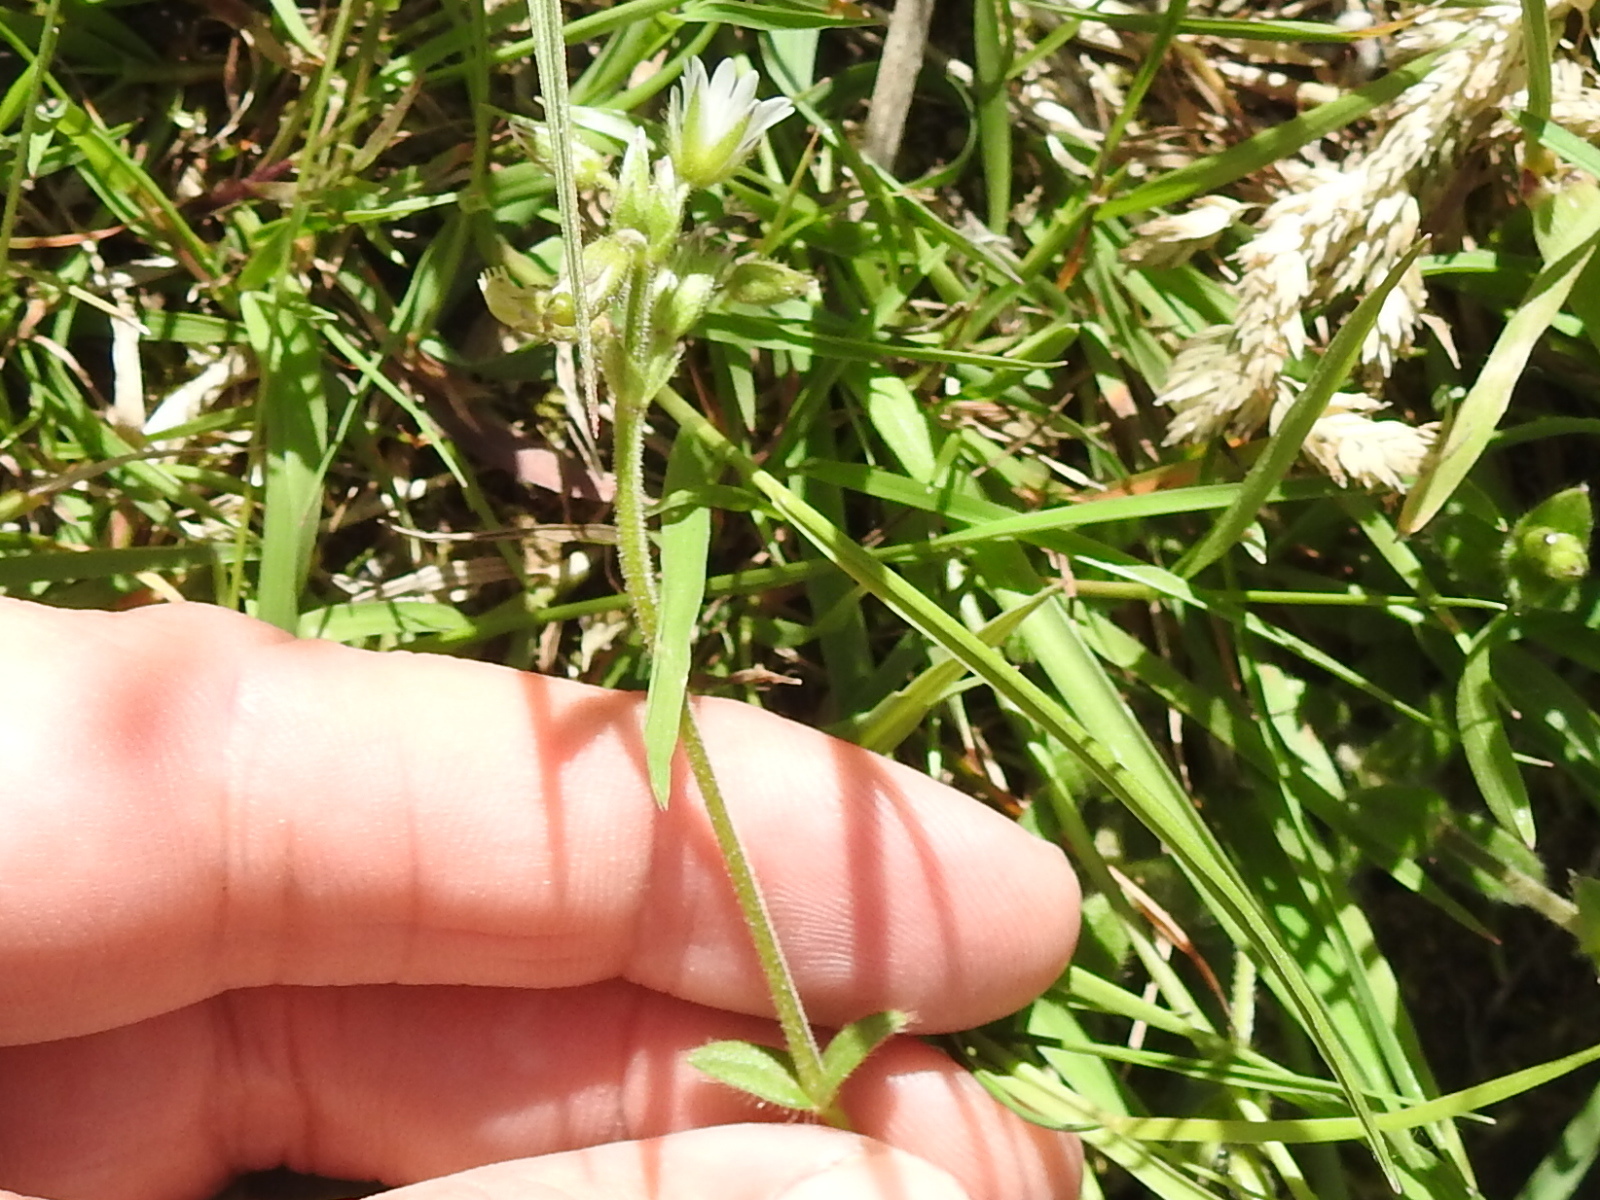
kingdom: Plantae
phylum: Tracheophyta
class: Magnoliopsida
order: Caryophyllales
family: Caryophyllaceae
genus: Cerastium
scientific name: Cerastium fontanum
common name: Common mouse-ear
